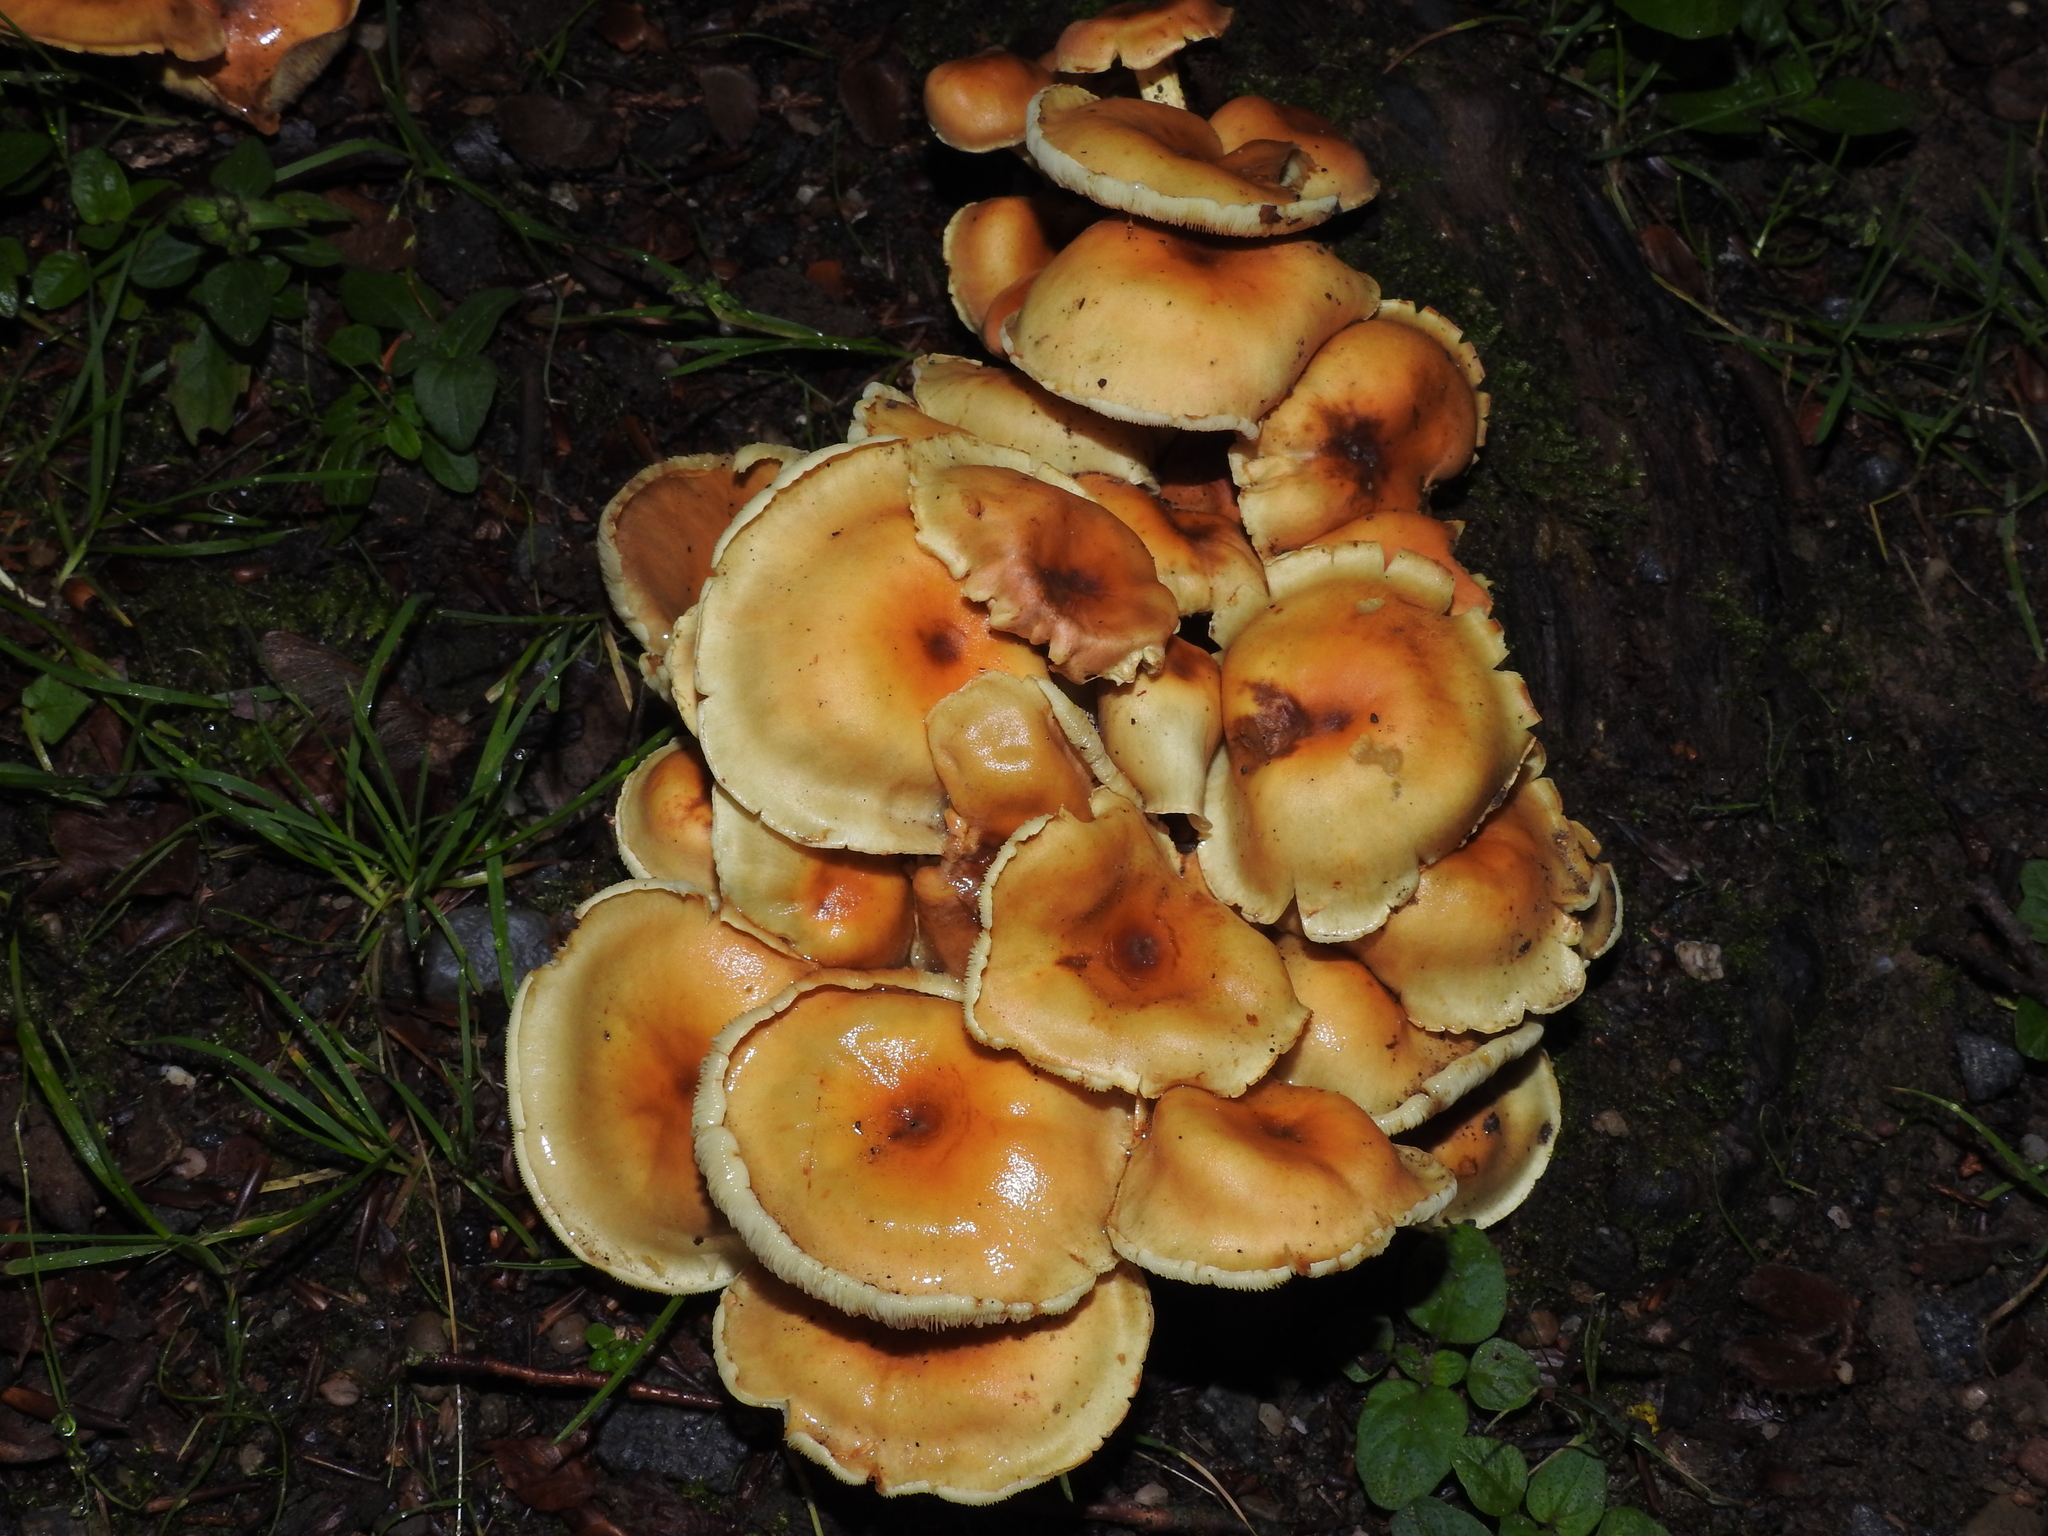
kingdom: Fungi
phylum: Basidiomycota
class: Agaricomycetes
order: Agaricales
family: Strophariaceae
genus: Hypholoma
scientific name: Hypholoma fasciculare
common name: Sulphur tuft
